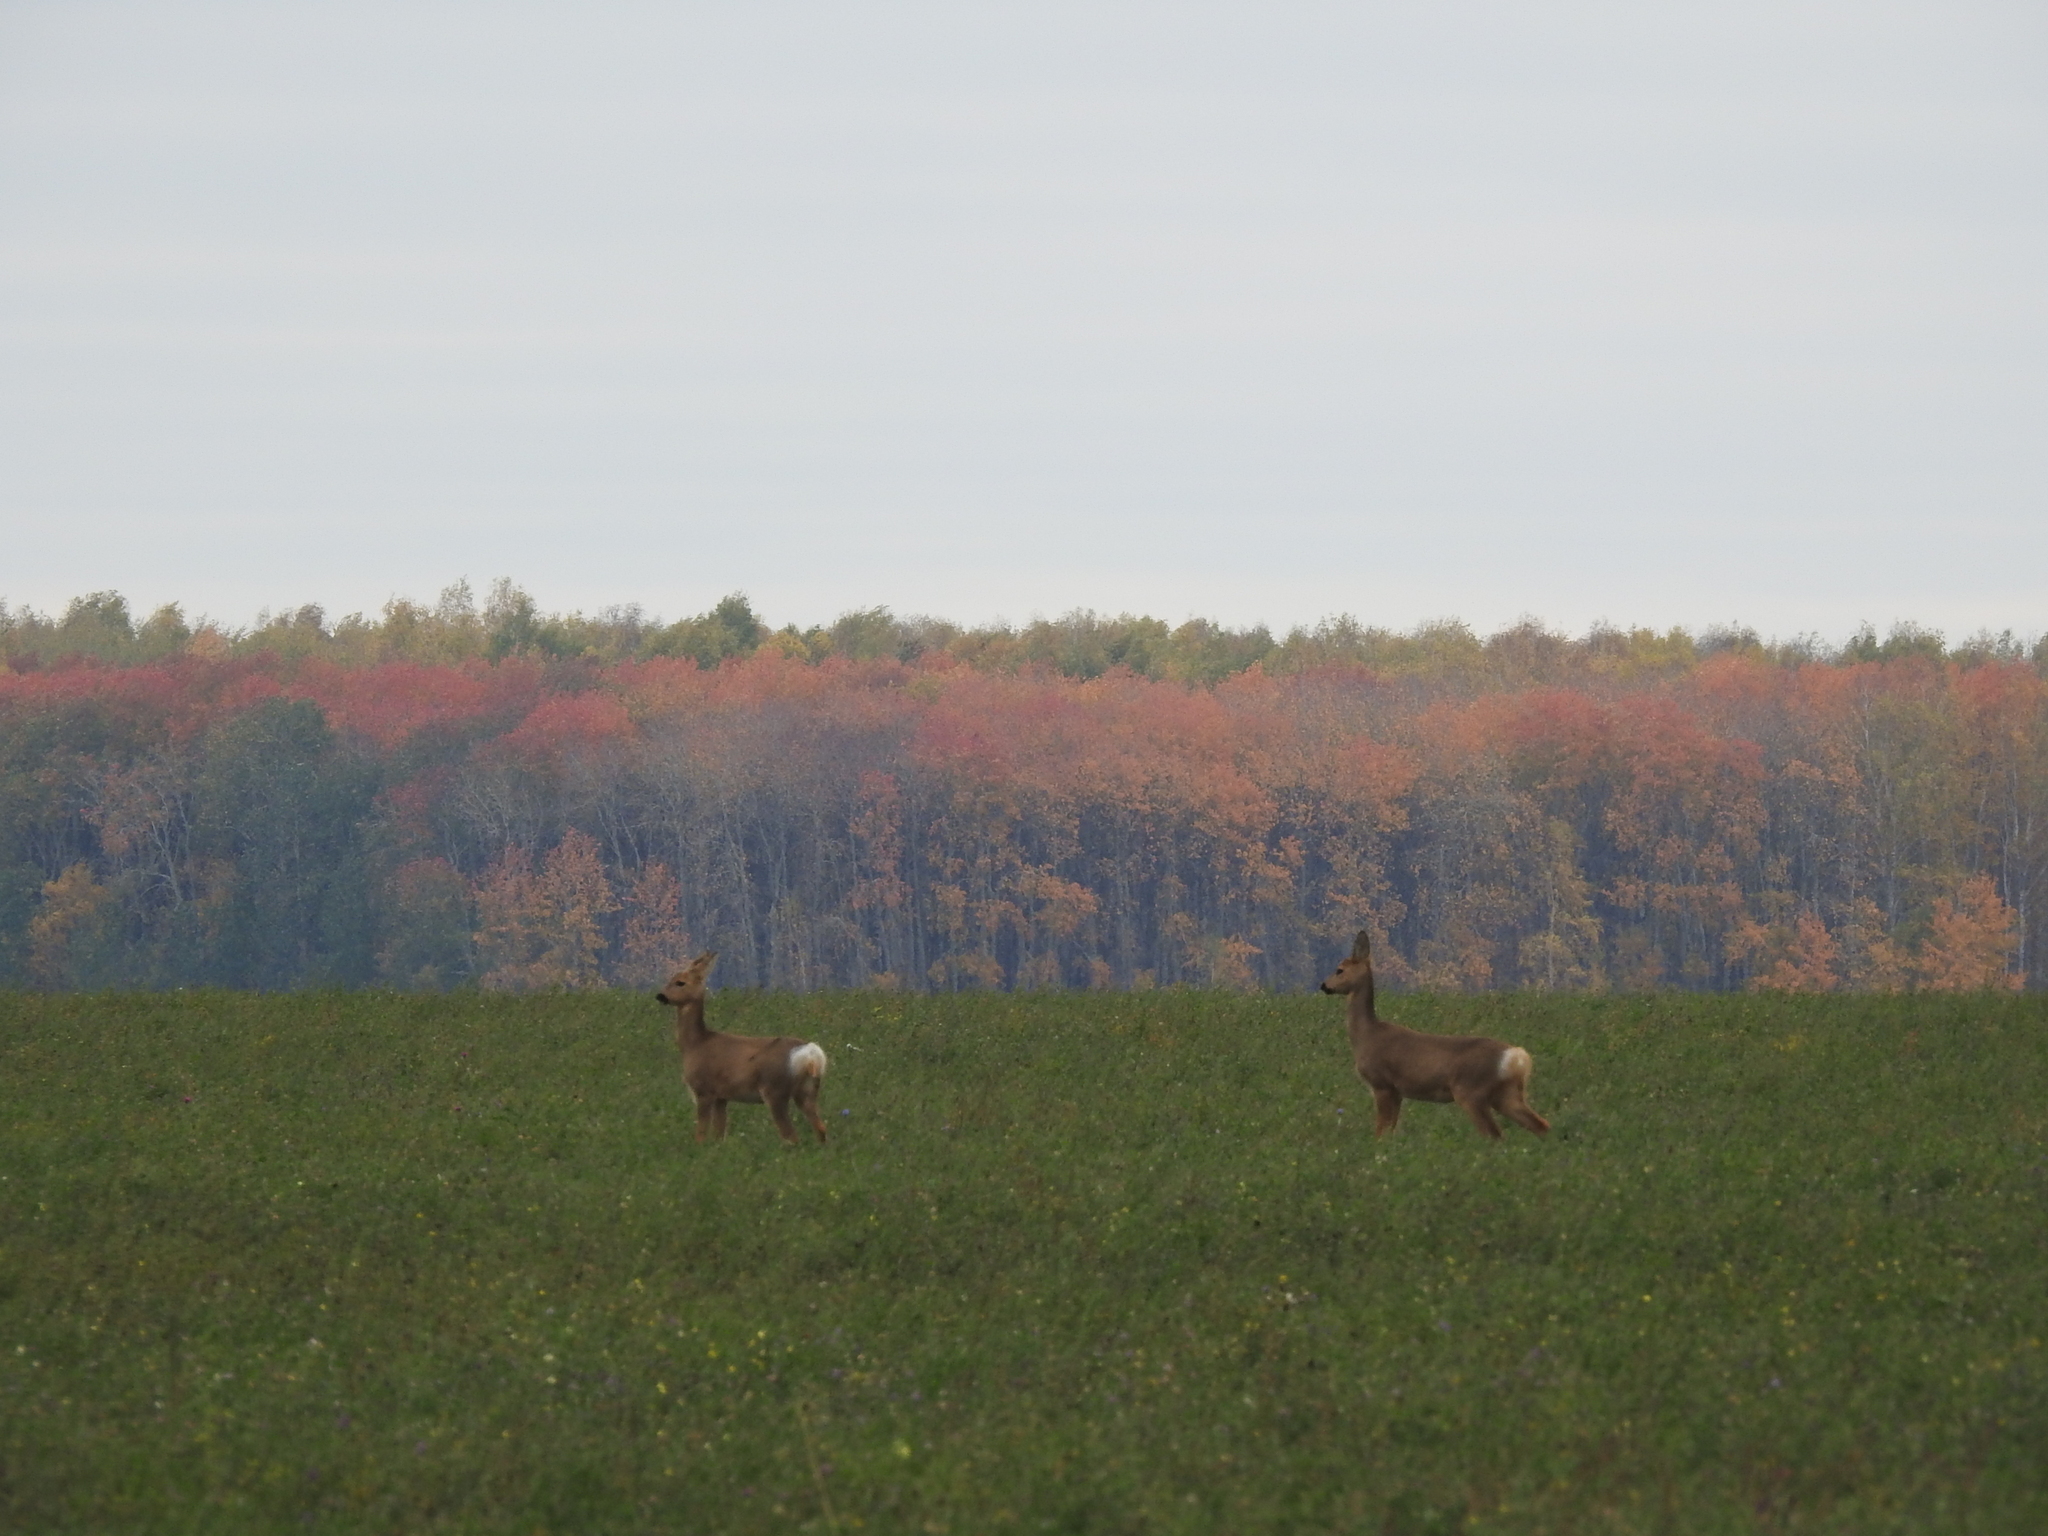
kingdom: Animalia
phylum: Chordata
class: Mammalia
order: Artiodactyla
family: Cervidae
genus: Capreolus
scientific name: Capreolus pygargus
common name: Siberian roe
